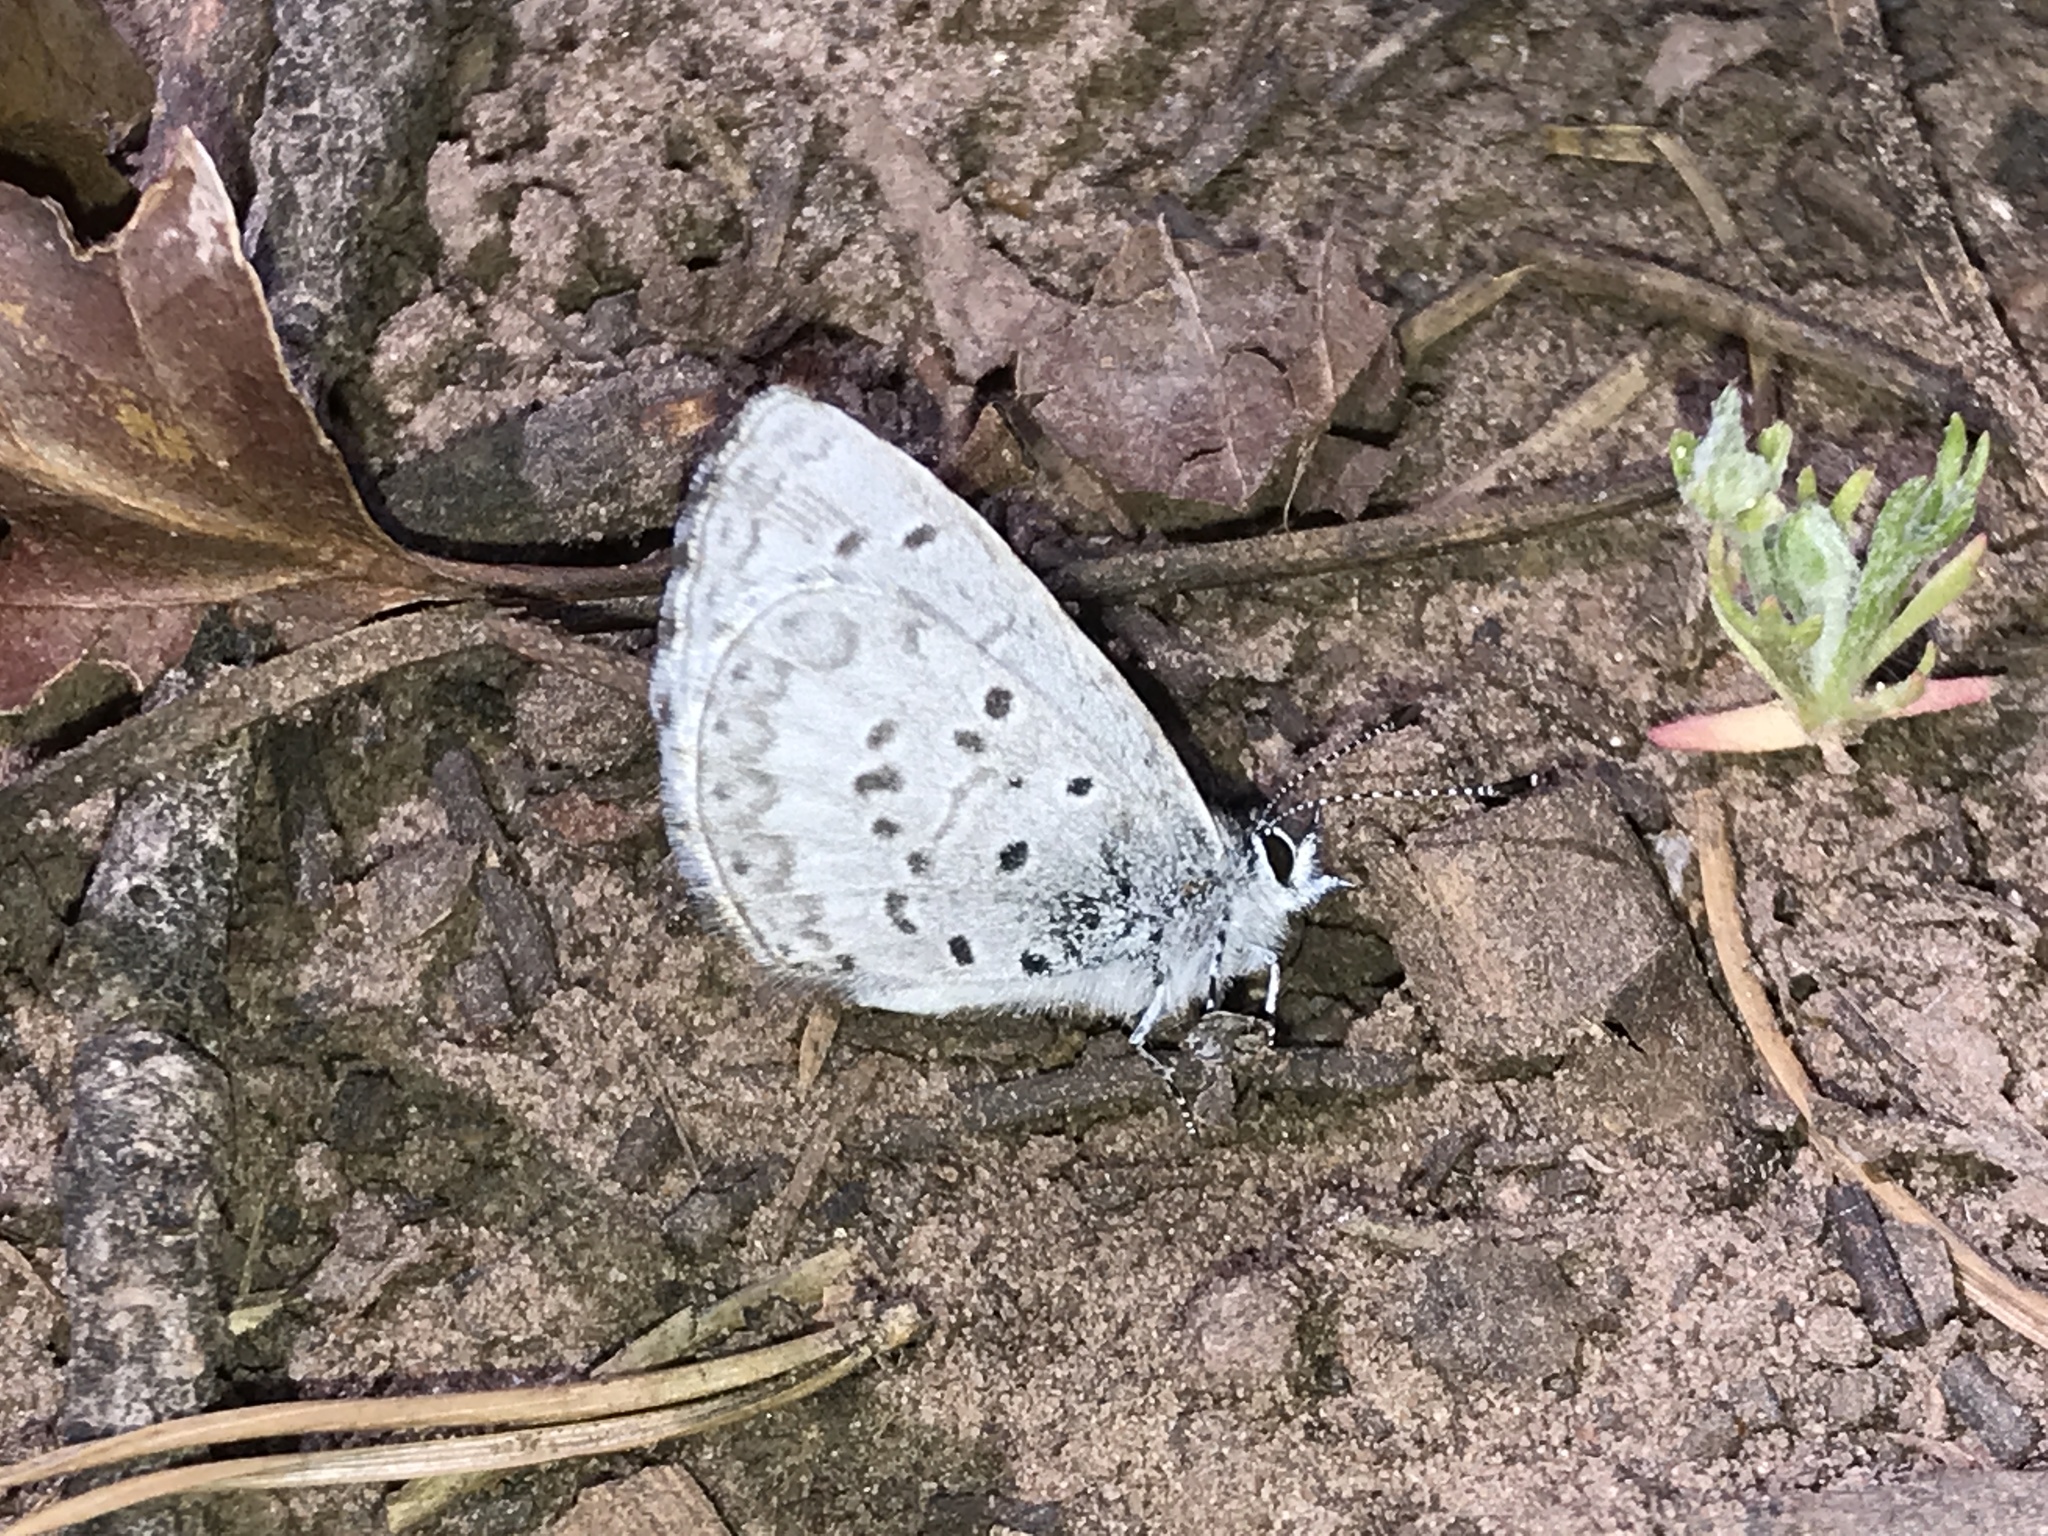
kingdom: Animalia
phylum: Arthropoda
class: Insecta
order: Lepidoptera
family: Lycaenidae
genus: Celastrina
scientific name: Celastrina lucia
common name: Lucia azure
